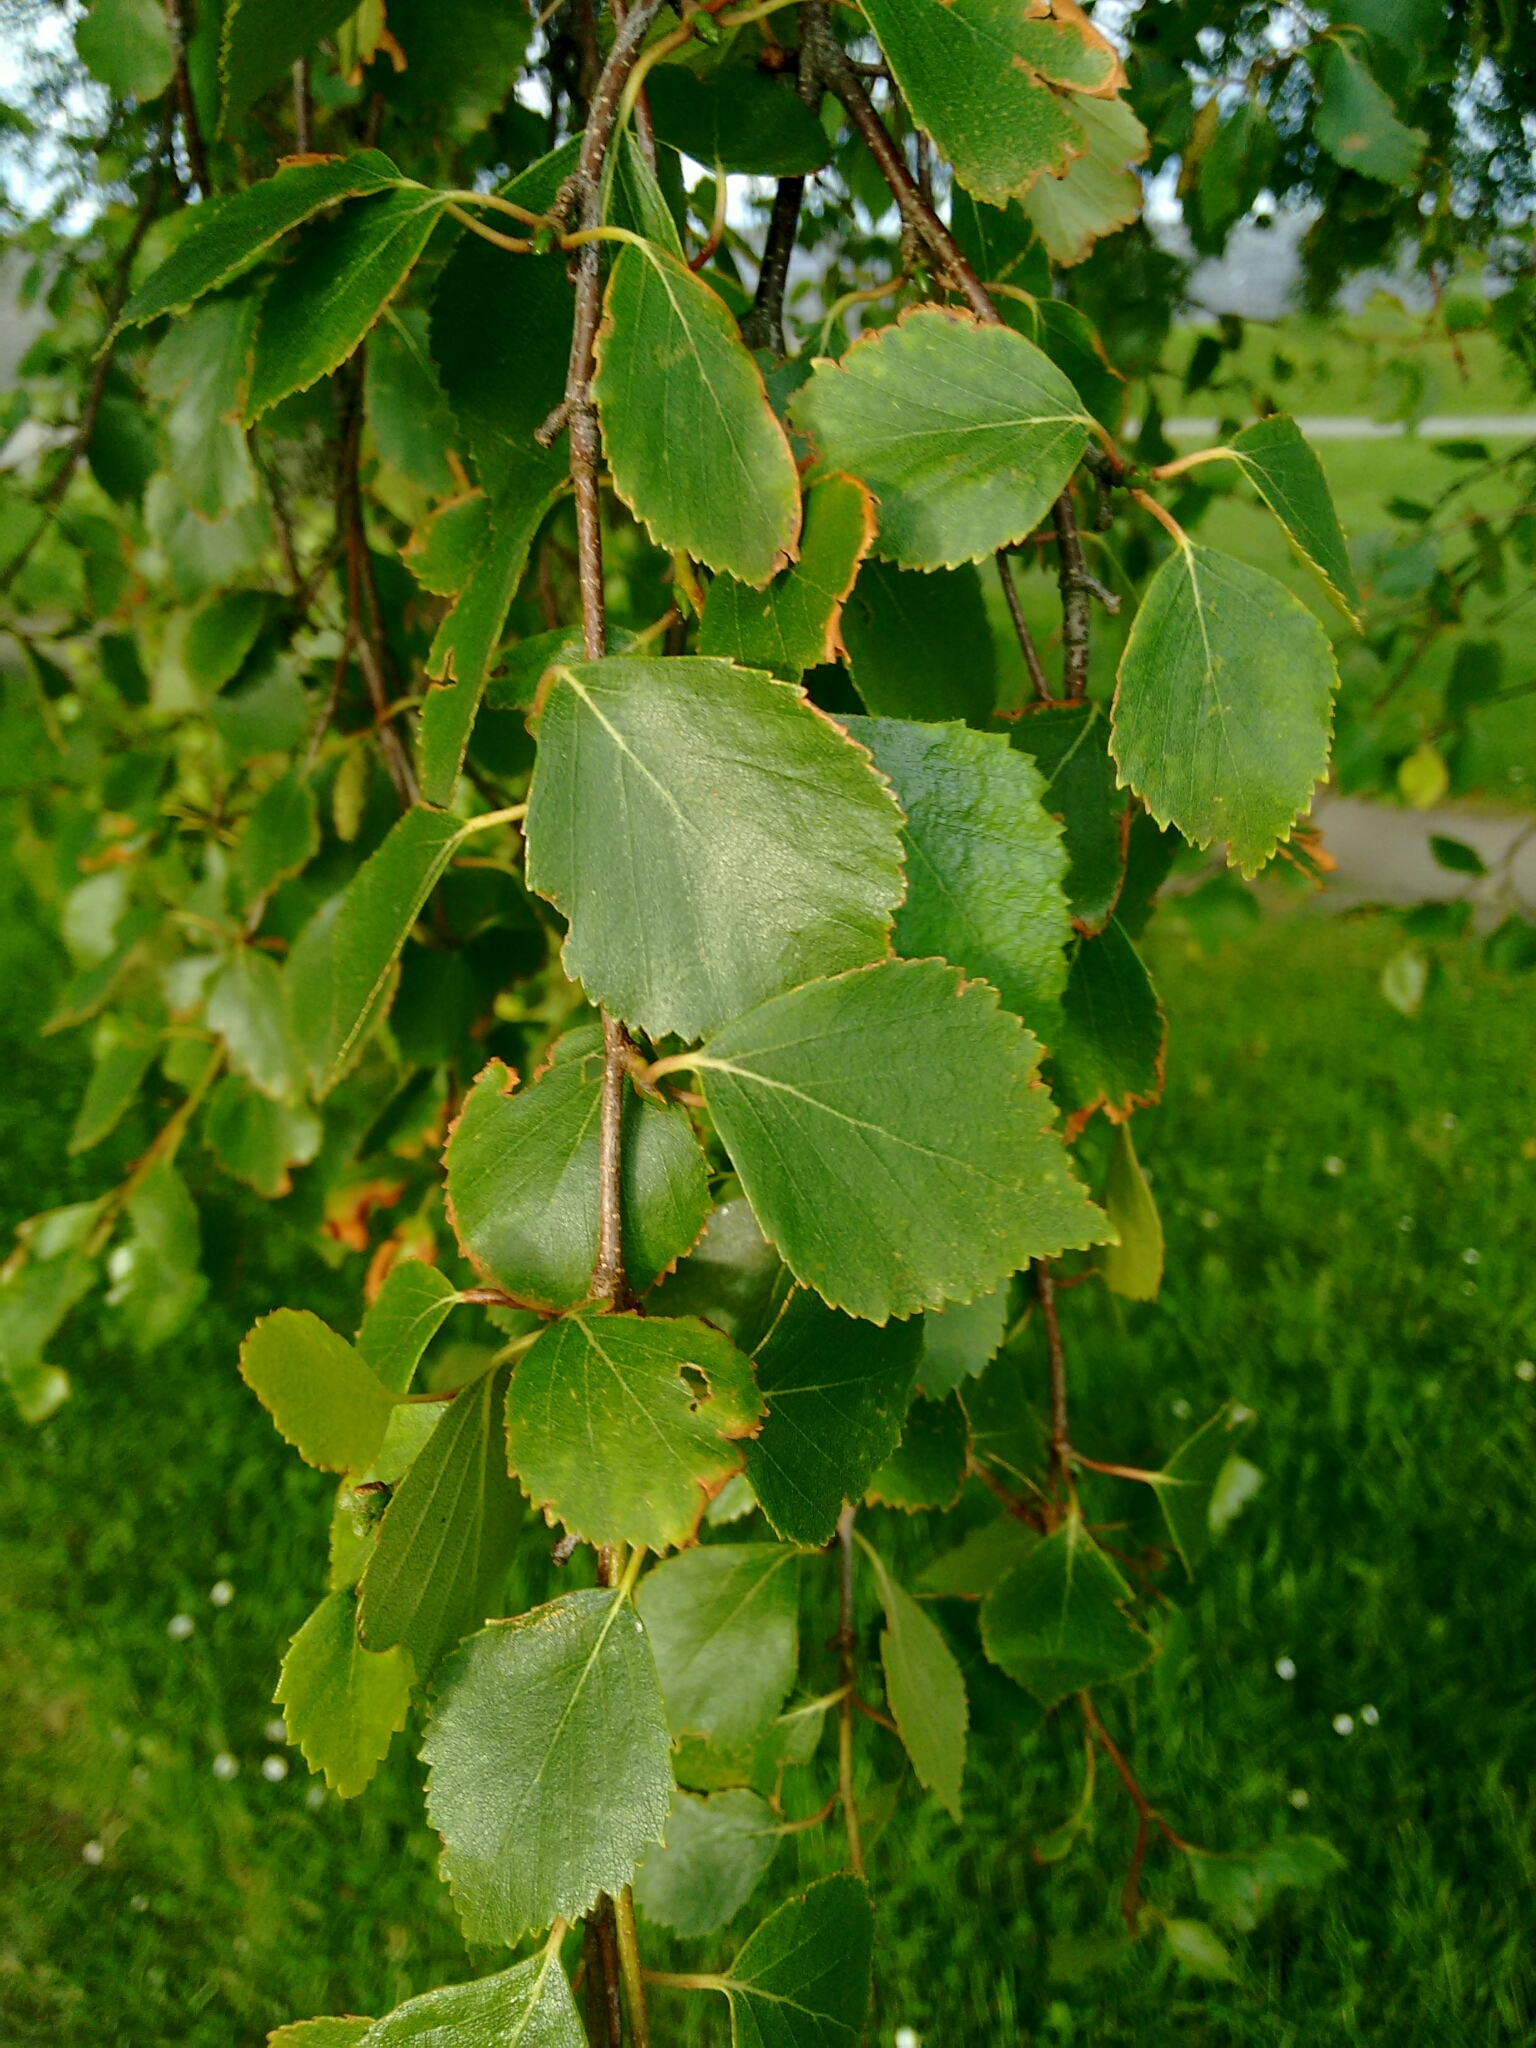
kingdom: Plantae
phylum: Tracheophyta
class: Magnoliopsida
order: Fagales
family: Betulaceae
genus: Betula
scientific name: Betula pendula
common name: Silver birch
